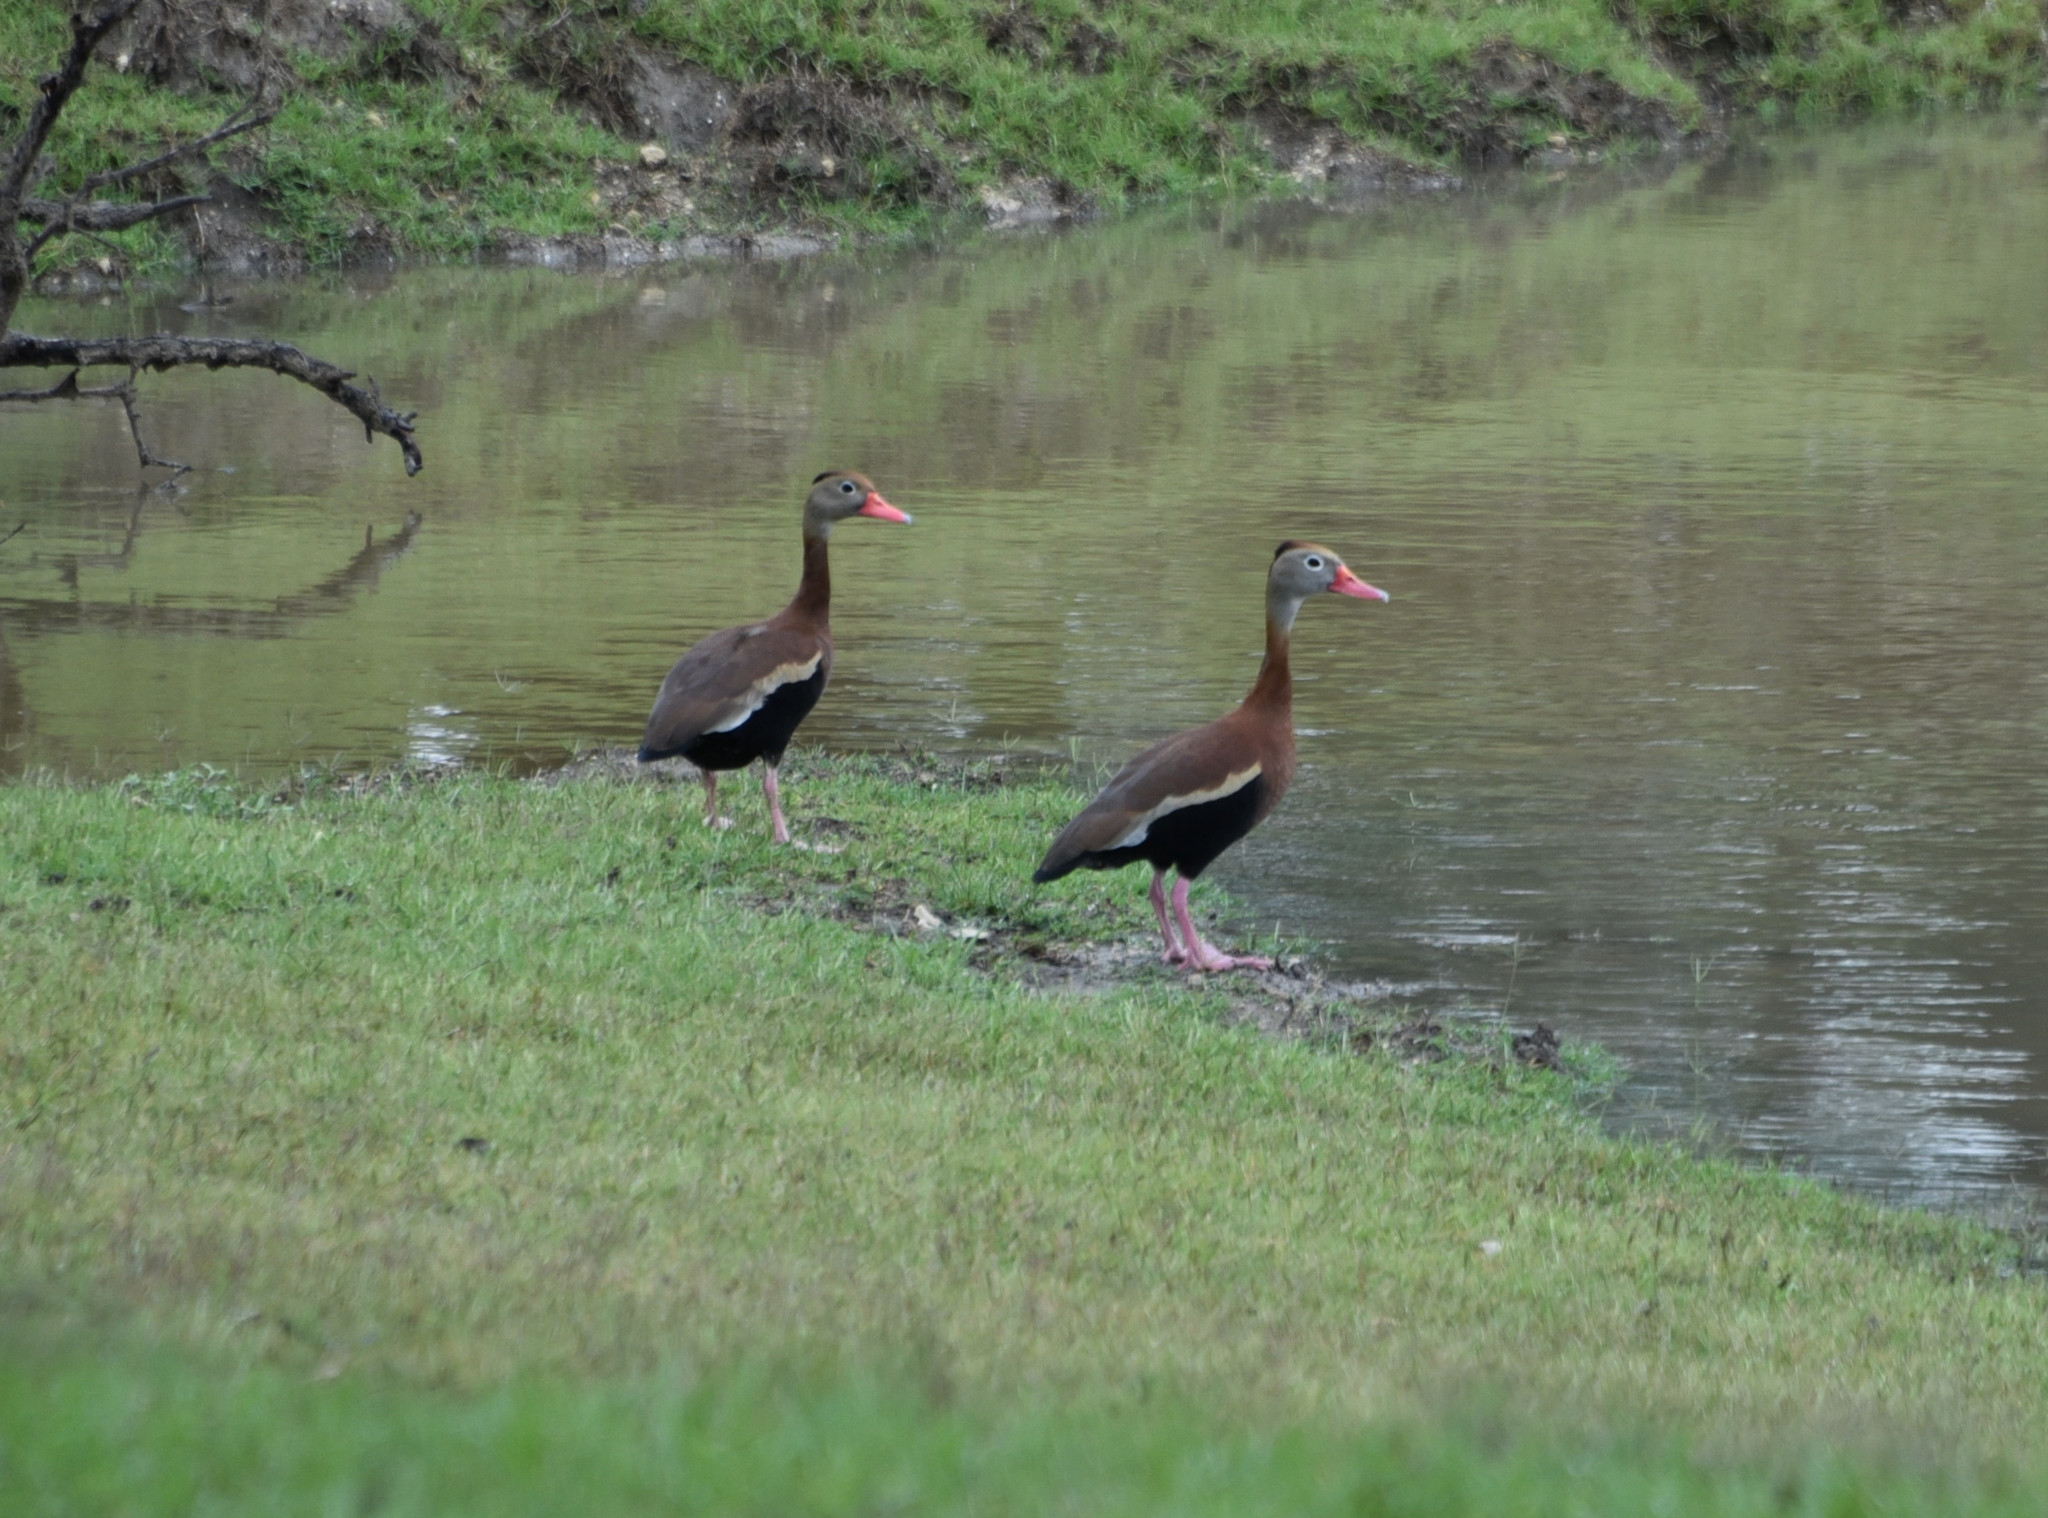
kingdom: Animalia
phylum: Chordata
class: Aves
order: Anseriformes
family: Anatidae
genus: Dendrocygna
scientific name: Dendrocygna autumnalis
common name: Black-bellied whistling duck
